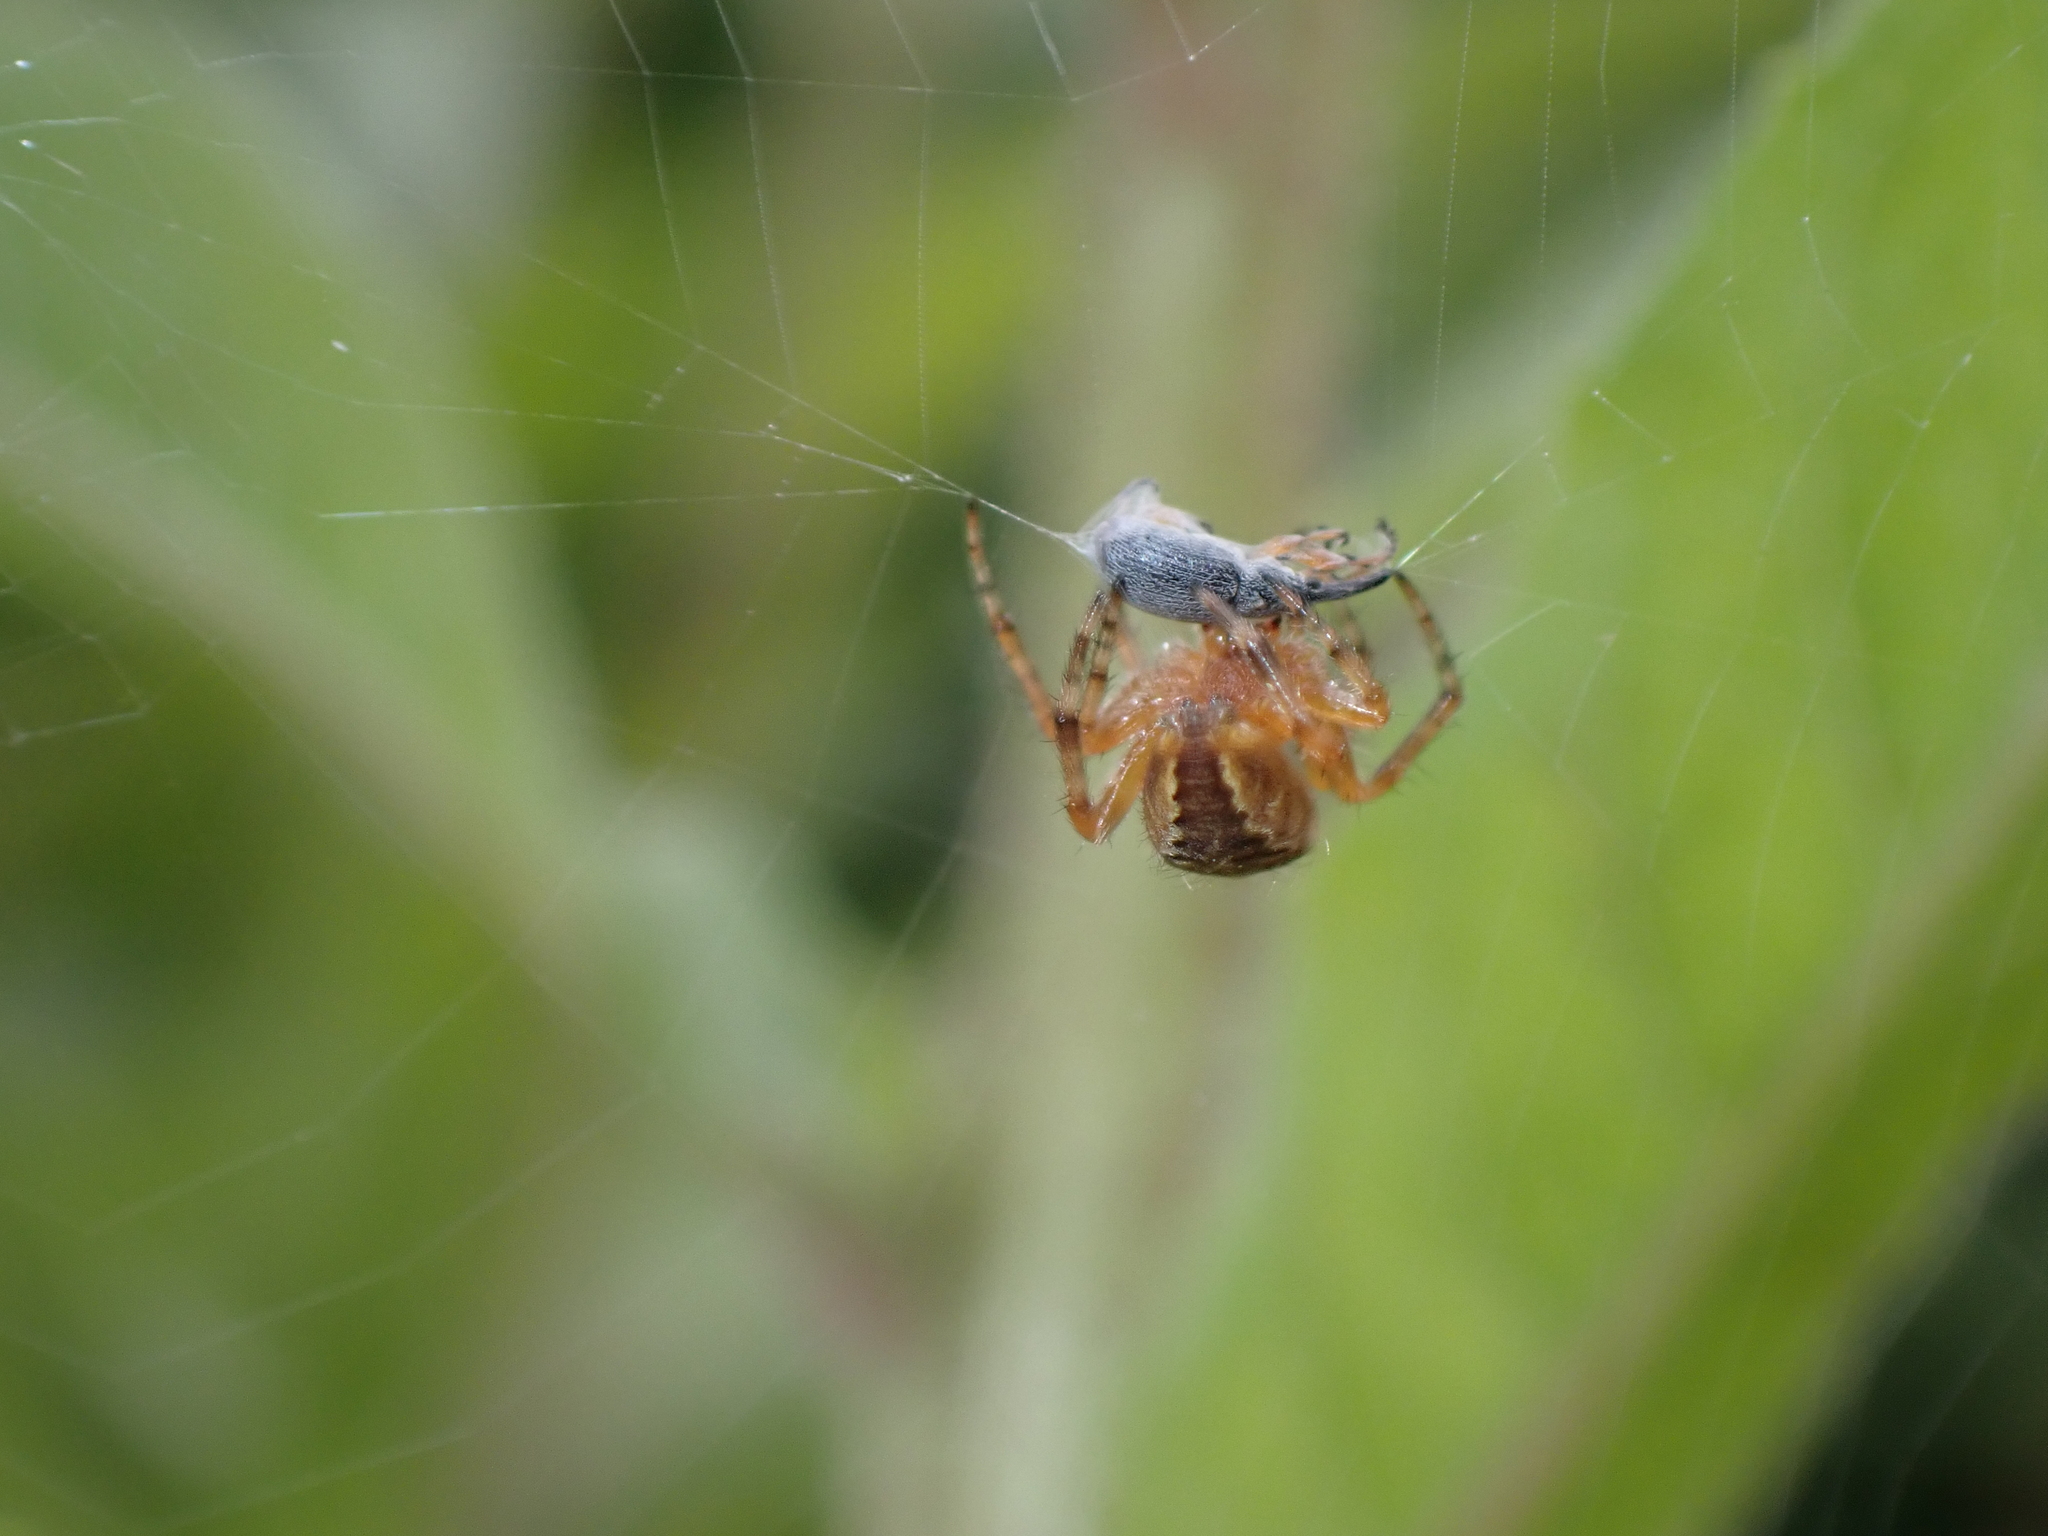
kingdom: Animalia
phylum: Arthropoda
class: Insecta
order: Coleoptera
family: Brentidae
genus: Rhopalapion
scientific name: Rhopalapion longirostre
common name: Hollyhock weevil
